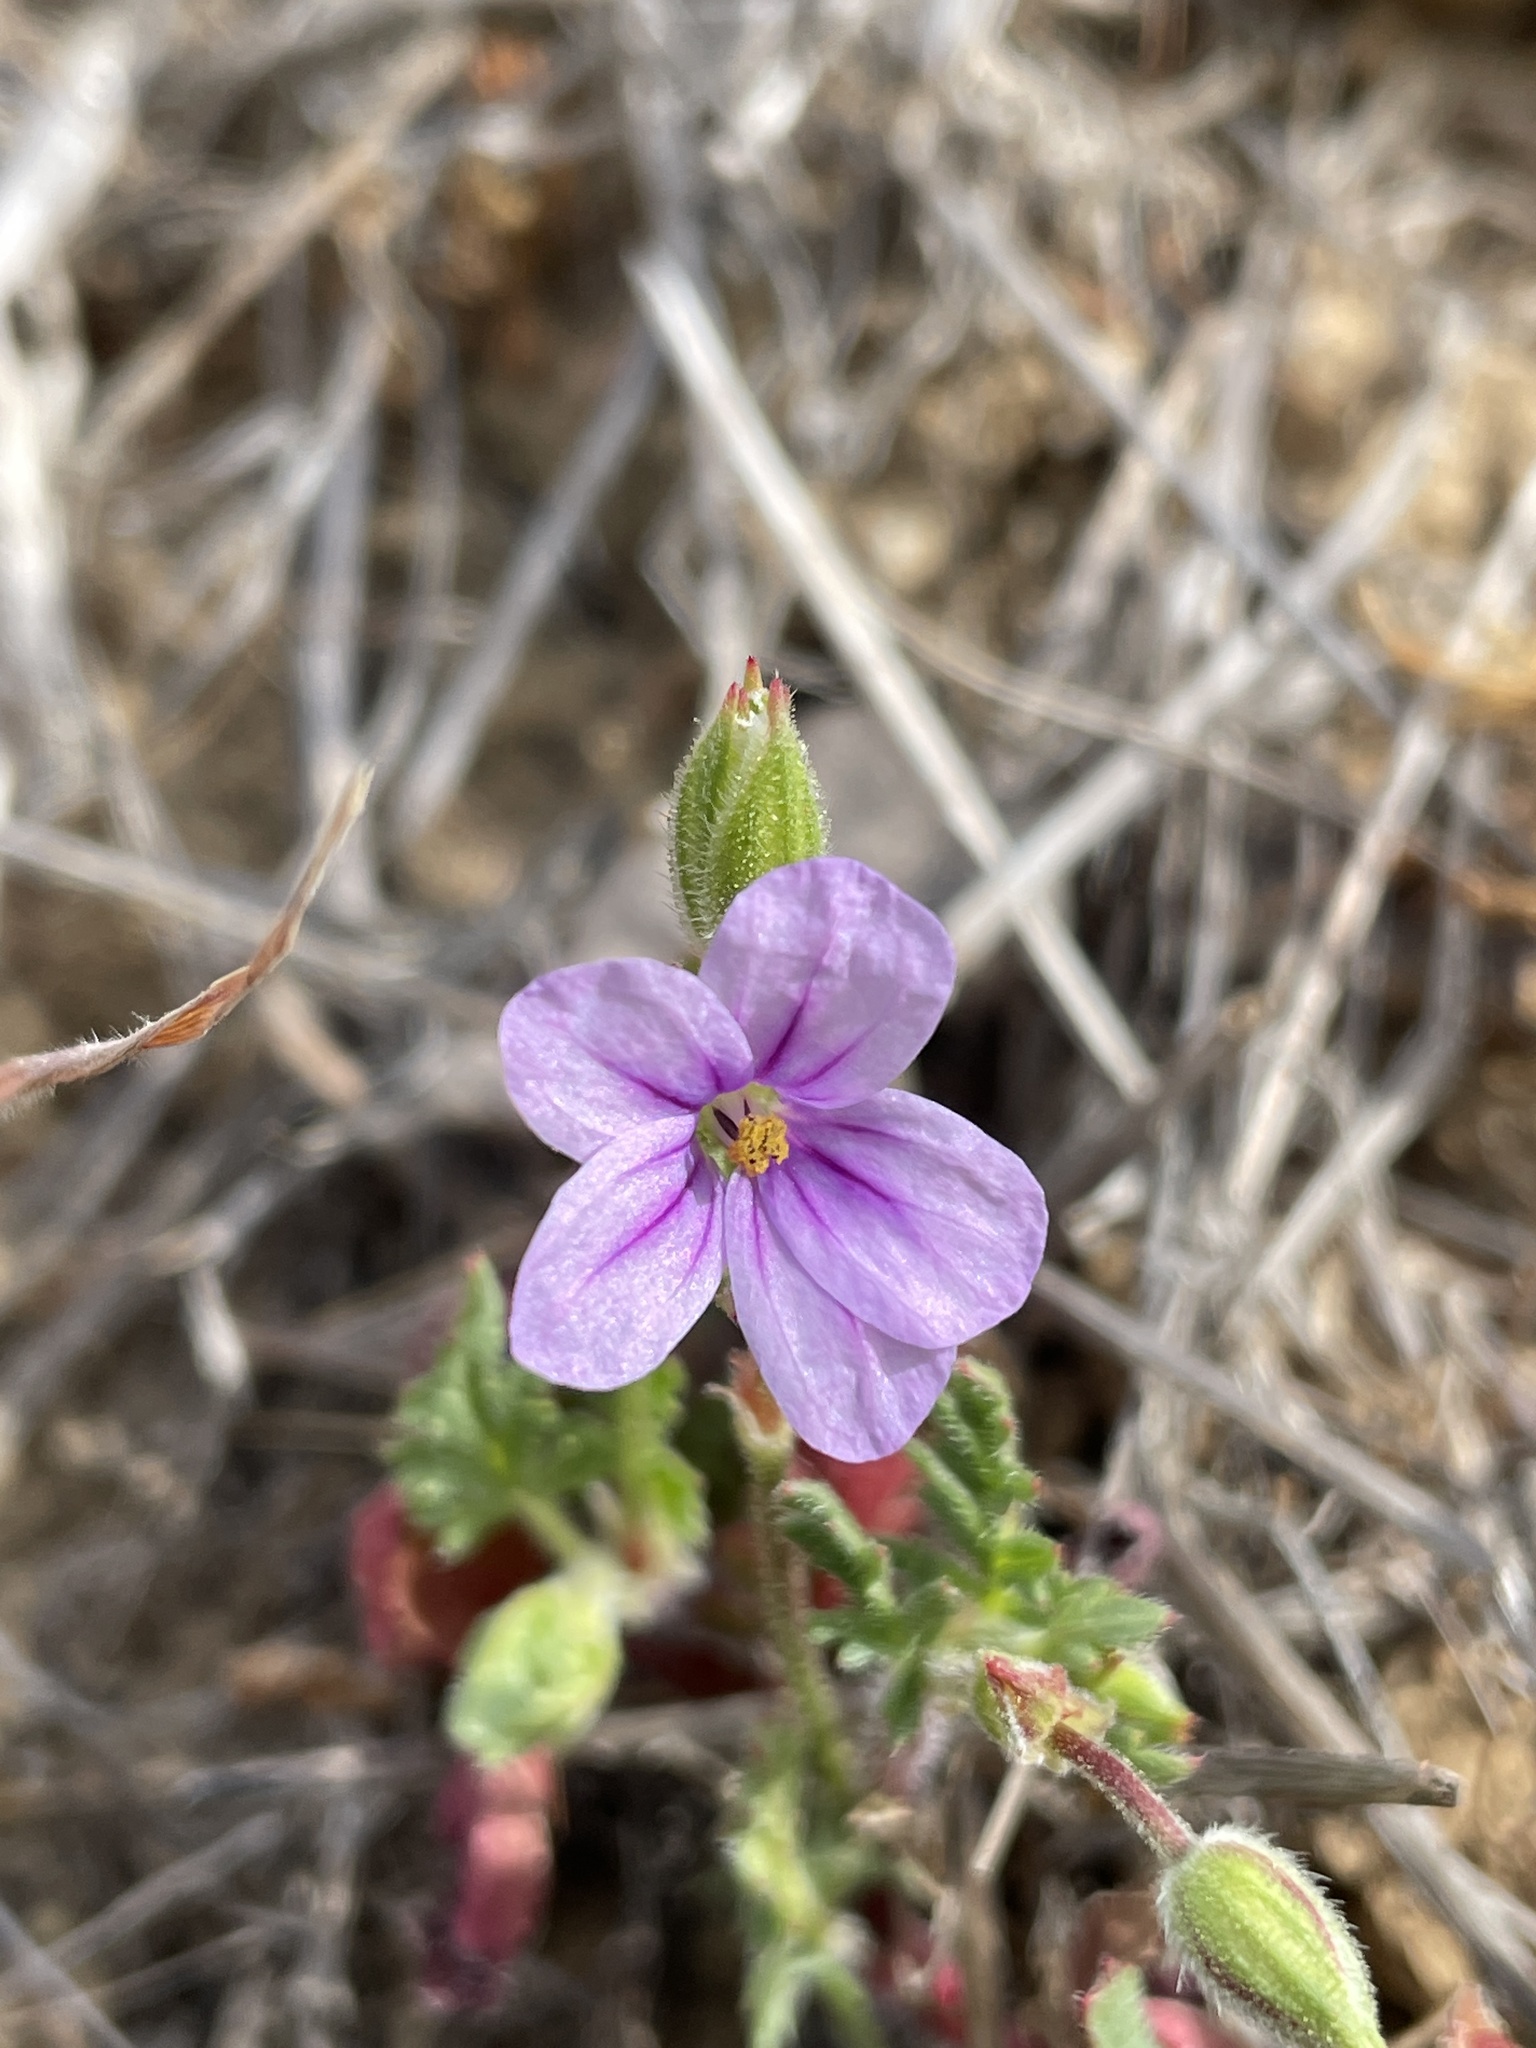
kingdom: Plantae
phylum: Tracheophyta
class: Magnoliopsida
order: Geraniales
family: Geraniaceae
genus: Erodium
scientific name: Erodium botrys
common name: Mediterranean stork's-bill
